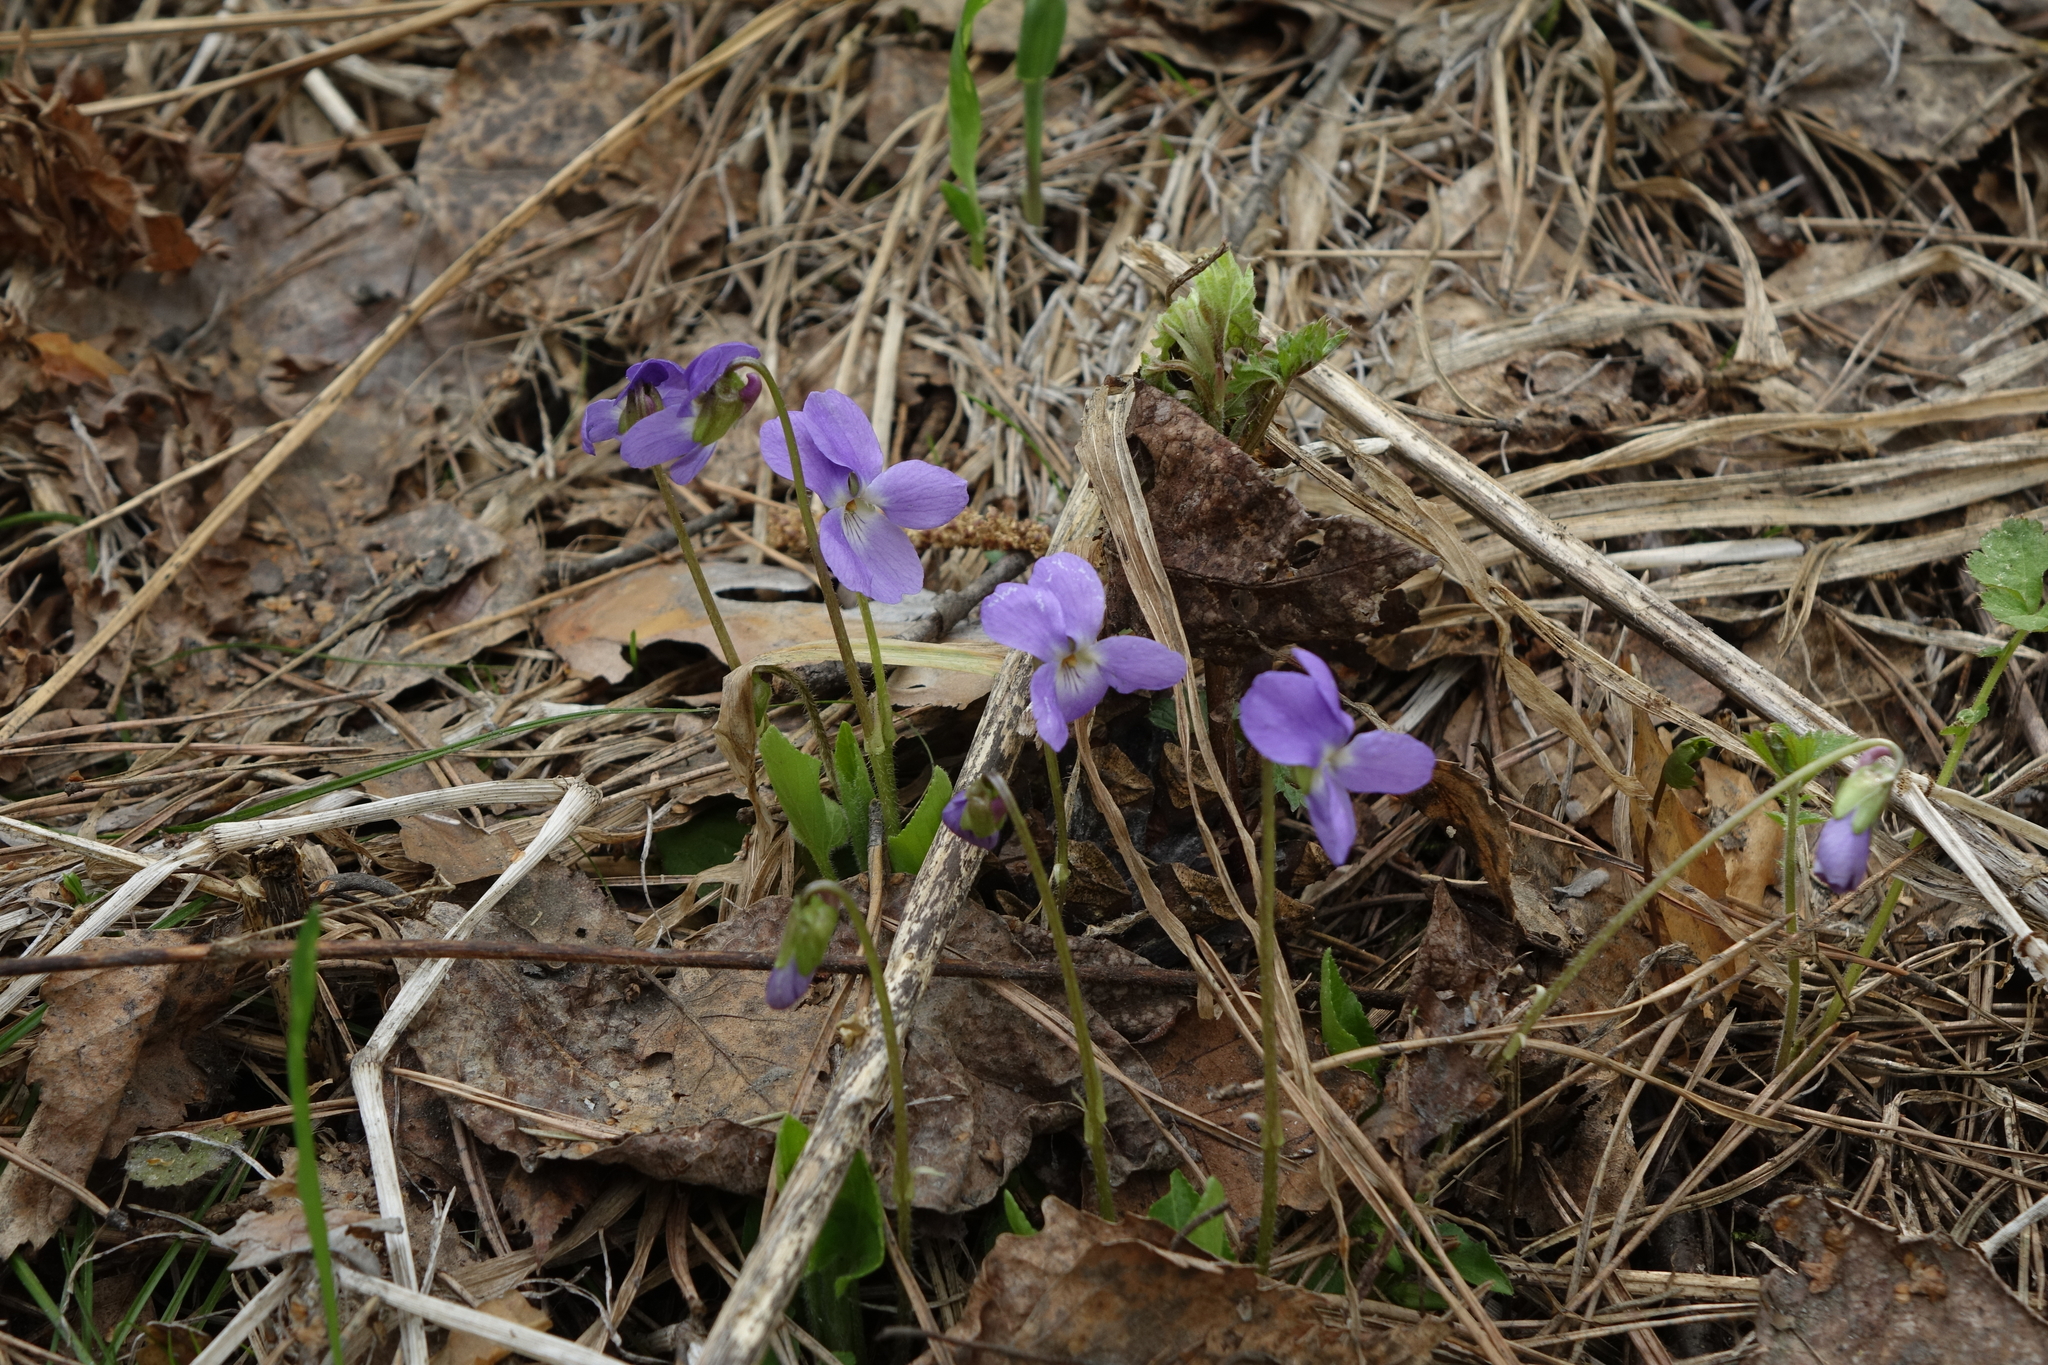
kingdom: Plantae
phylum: Tracheophyta
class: Magnoliopsida
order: Malpighiales
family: Violaceae
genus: Viola
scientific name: Viola hirta
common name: Hairy violet
